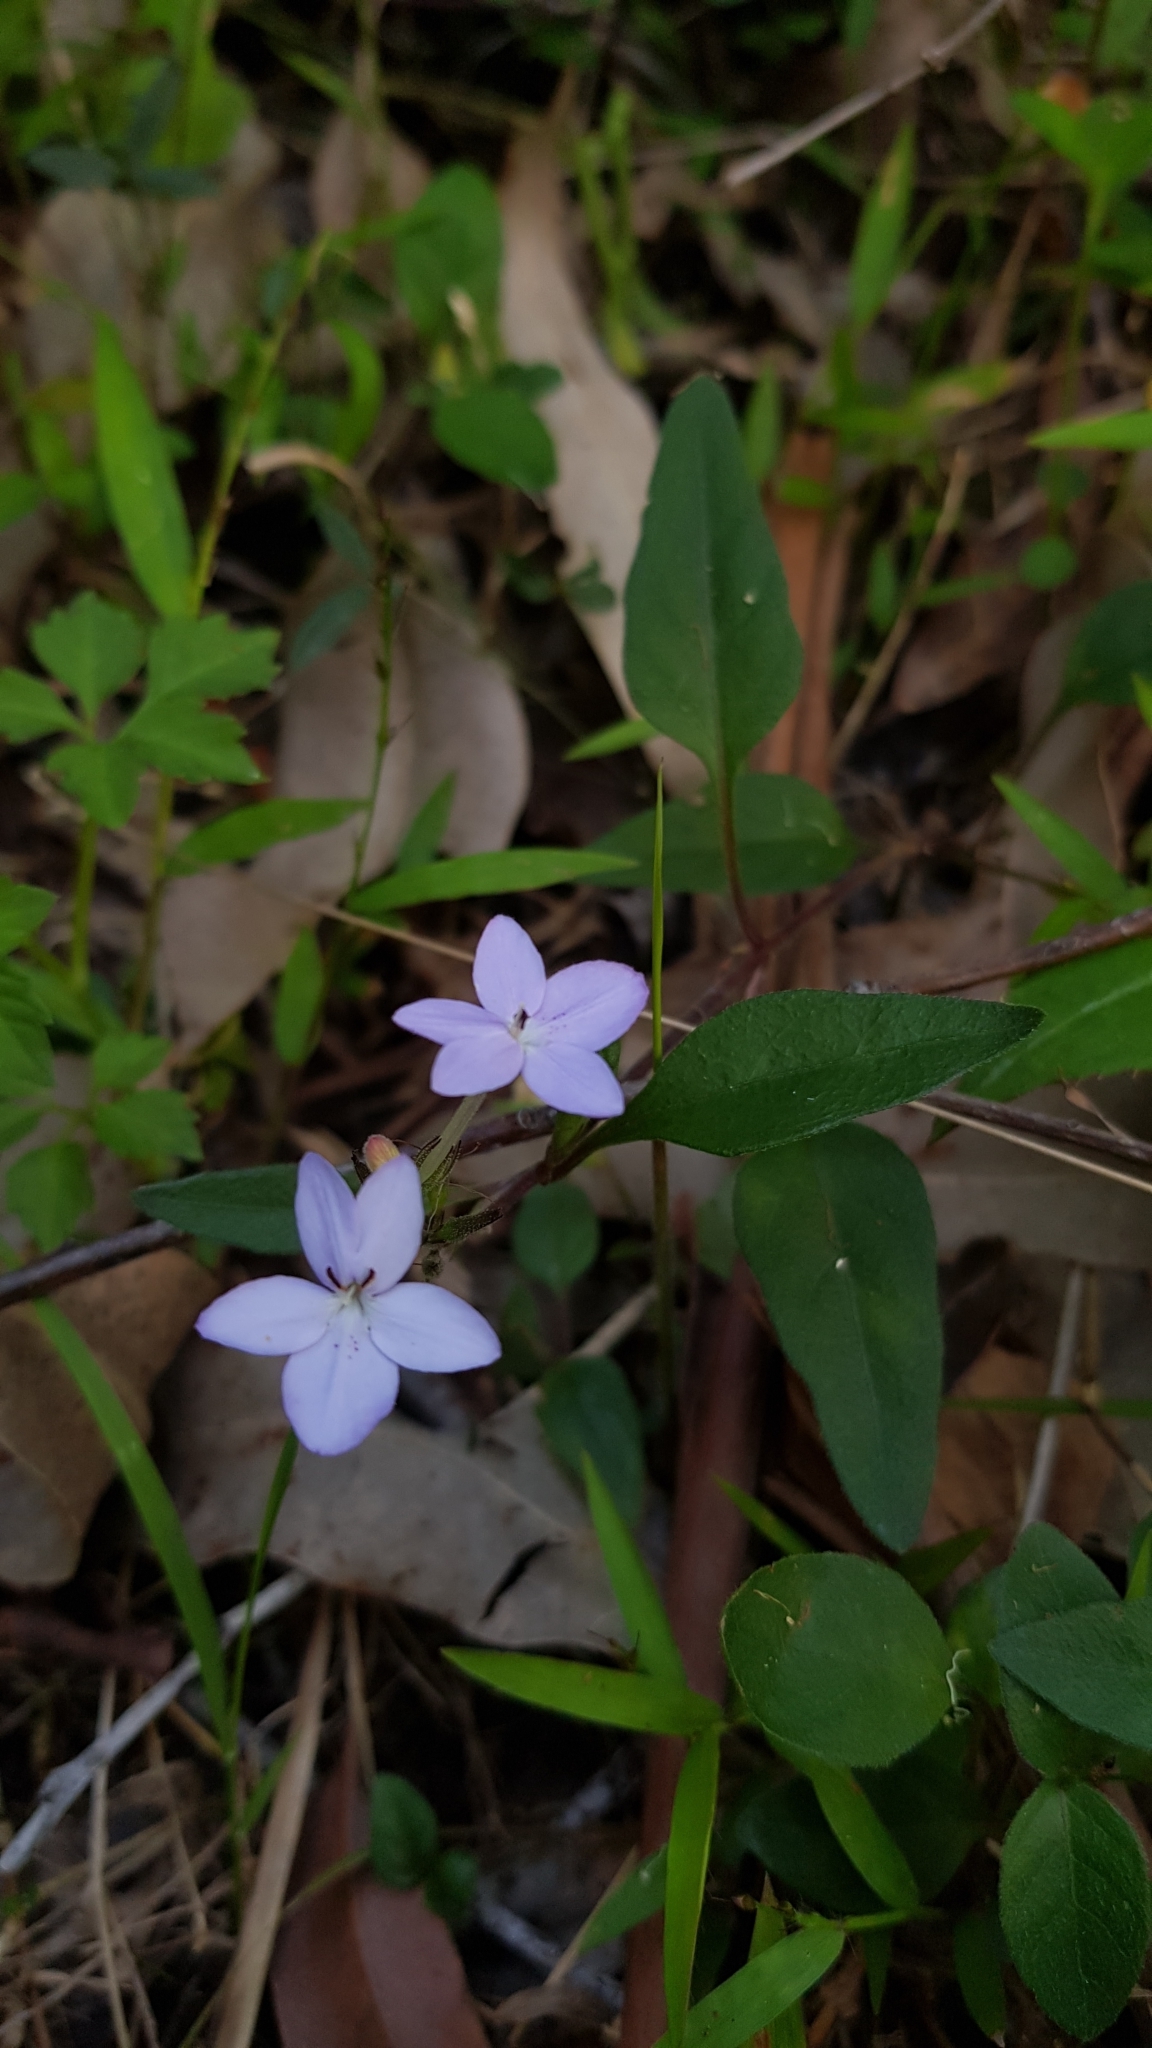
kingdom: Plantae
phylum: Tracheophyta
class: Magnoliopsida
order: Lamiales
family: Acanthaceae
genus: Pseuderanthemum
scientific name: Pseuderanthemum variabile
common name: Night and afternoon
